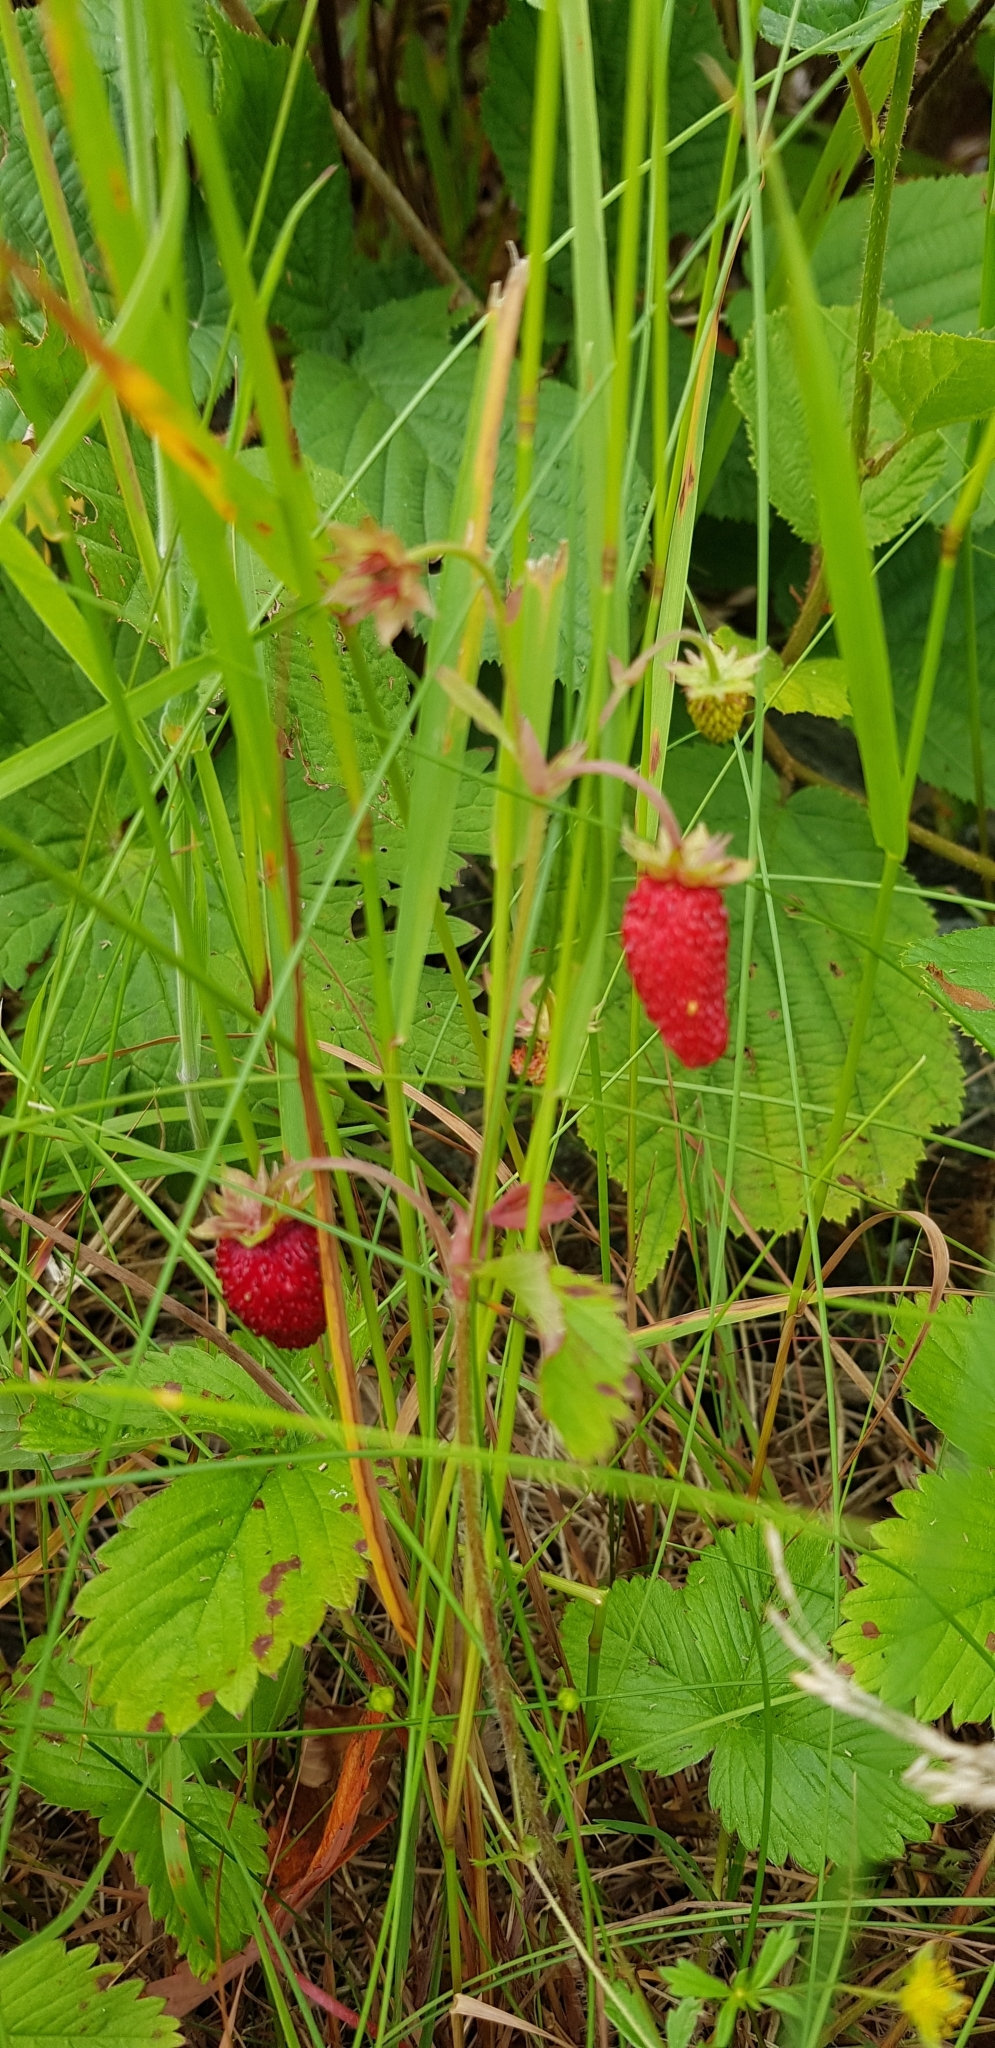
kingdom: Plantae
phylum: Tracheophyta
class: Magnoliopsida
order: Rosales
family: Rosaceae
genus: Fragaria
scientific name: Fragaria vesca
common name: Wild strawberry
